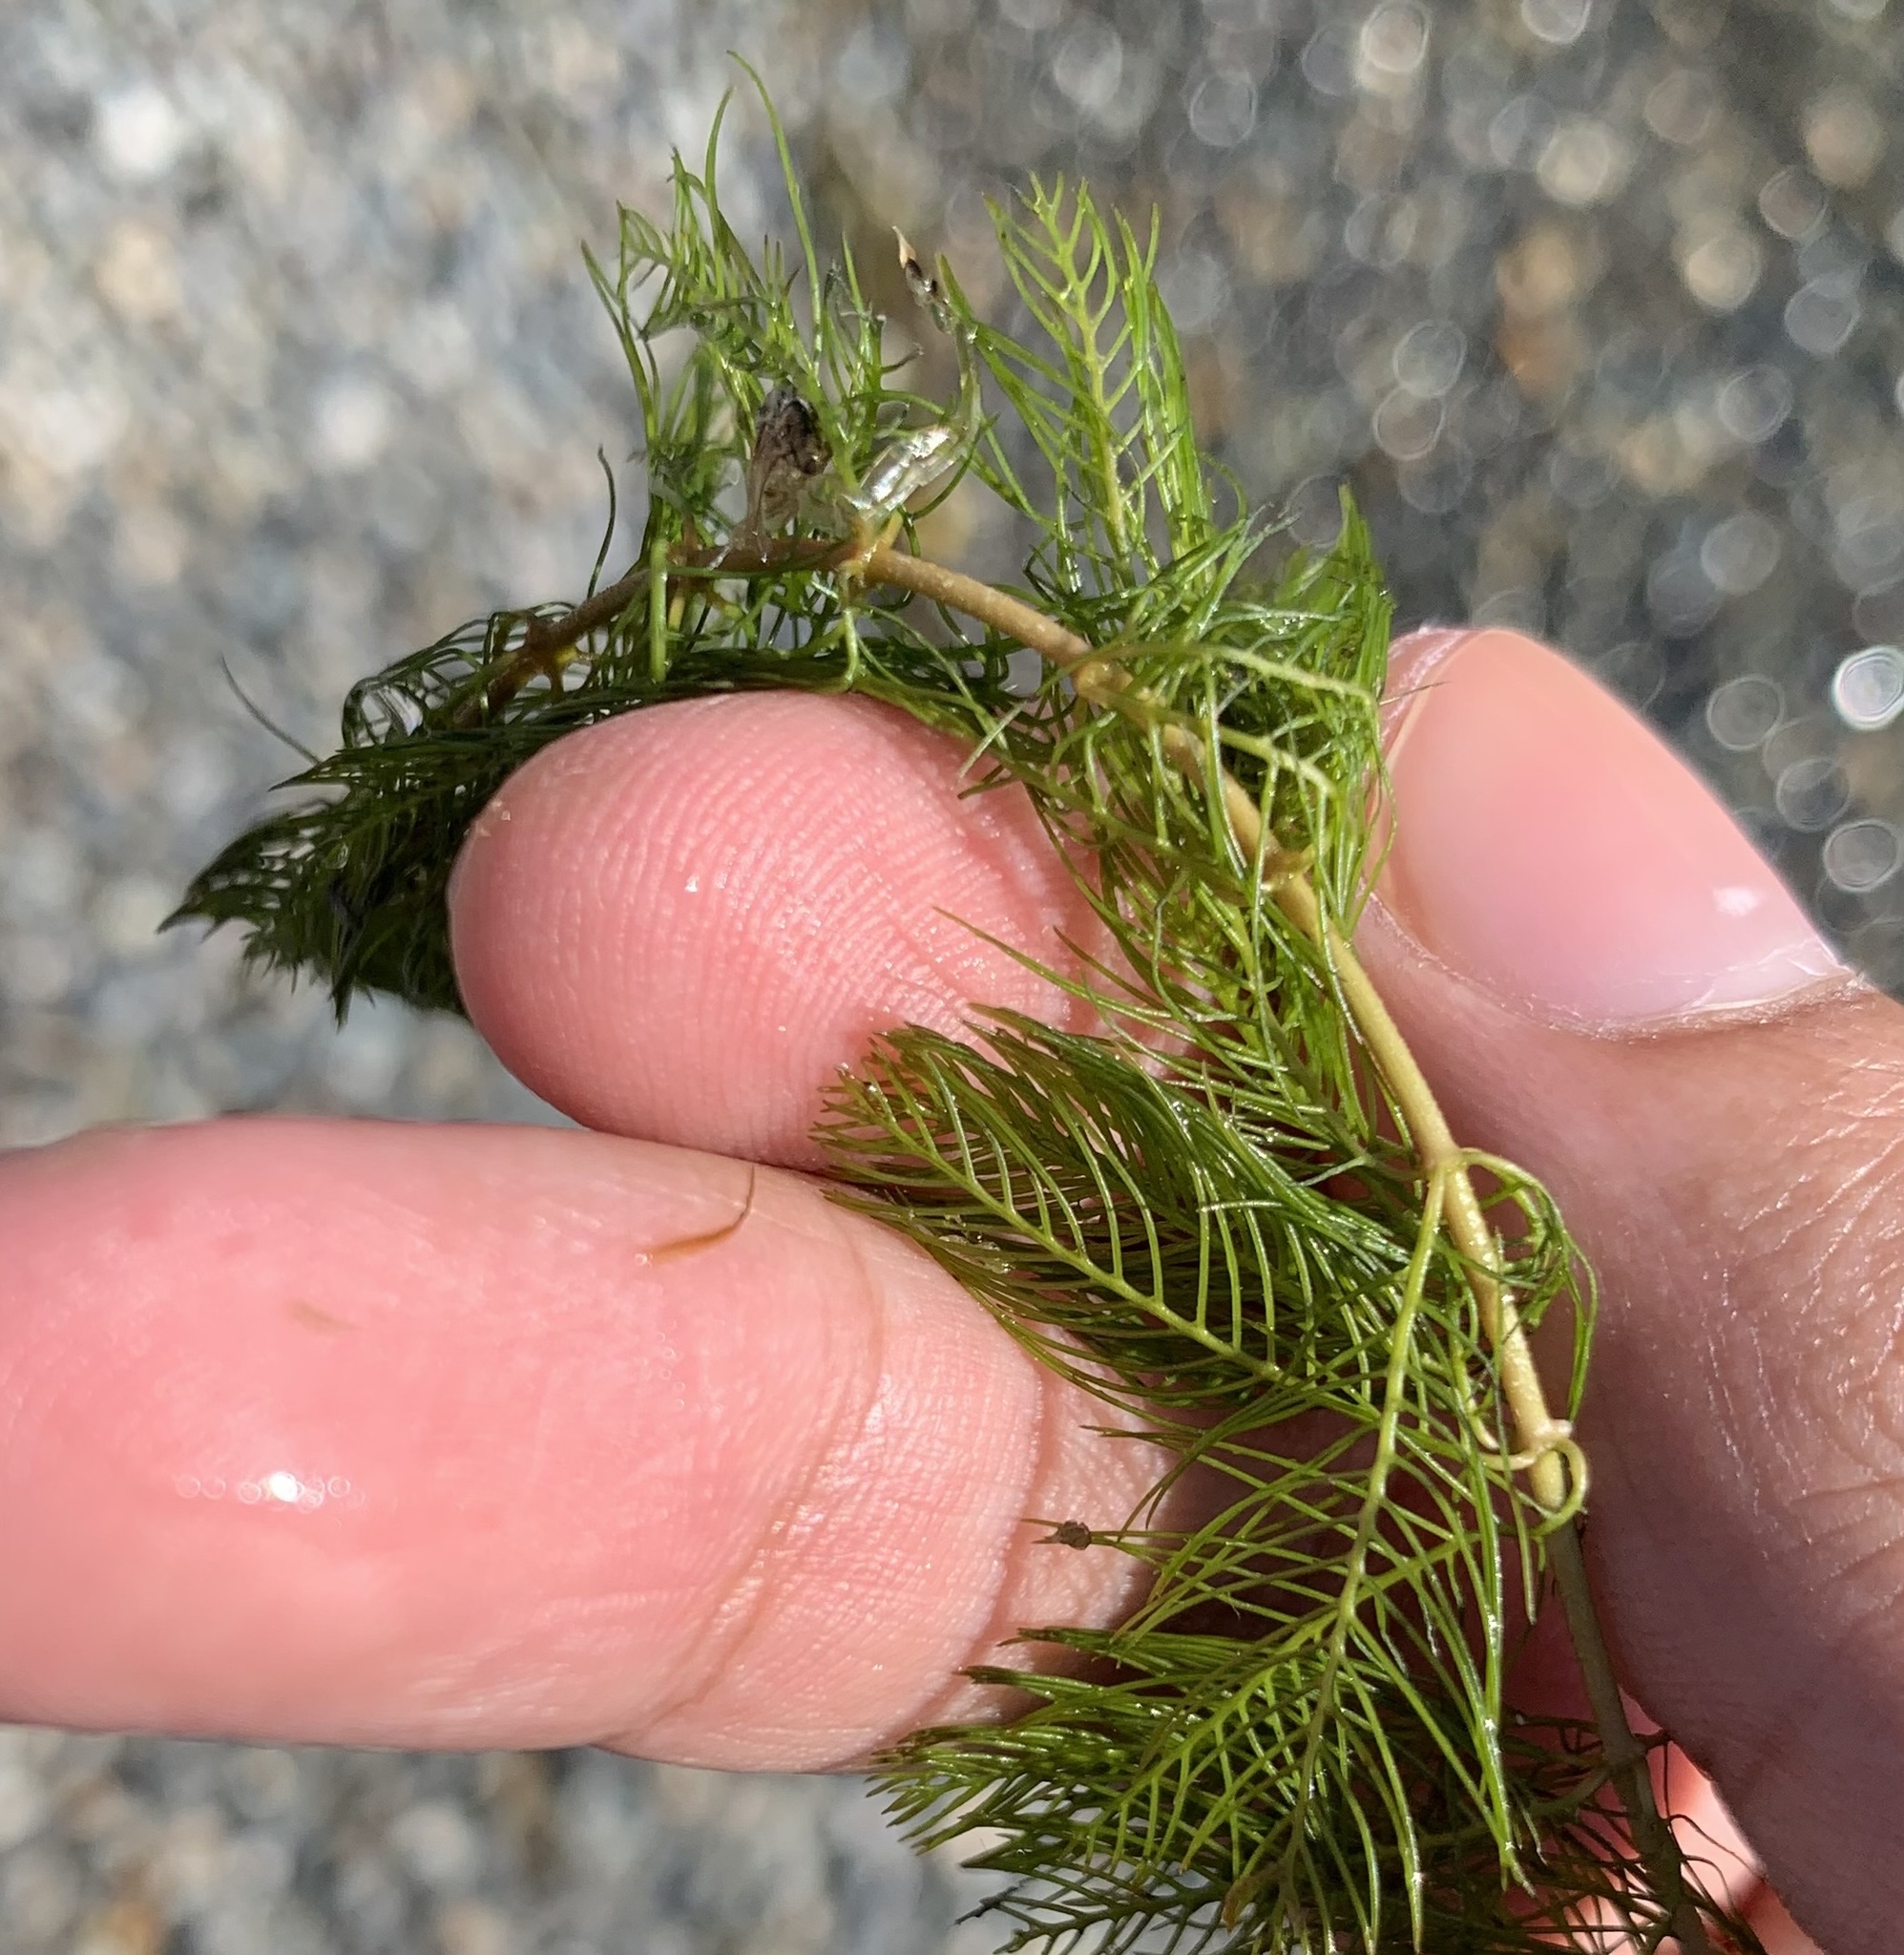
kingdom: Plantae
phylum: Tracheophyta
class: Magnoliopsida
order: Saxifragales
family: Haloragaceae
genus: Myriophyllum
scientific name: Myriophyllum spicatum
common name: Spiked water-milfoil
